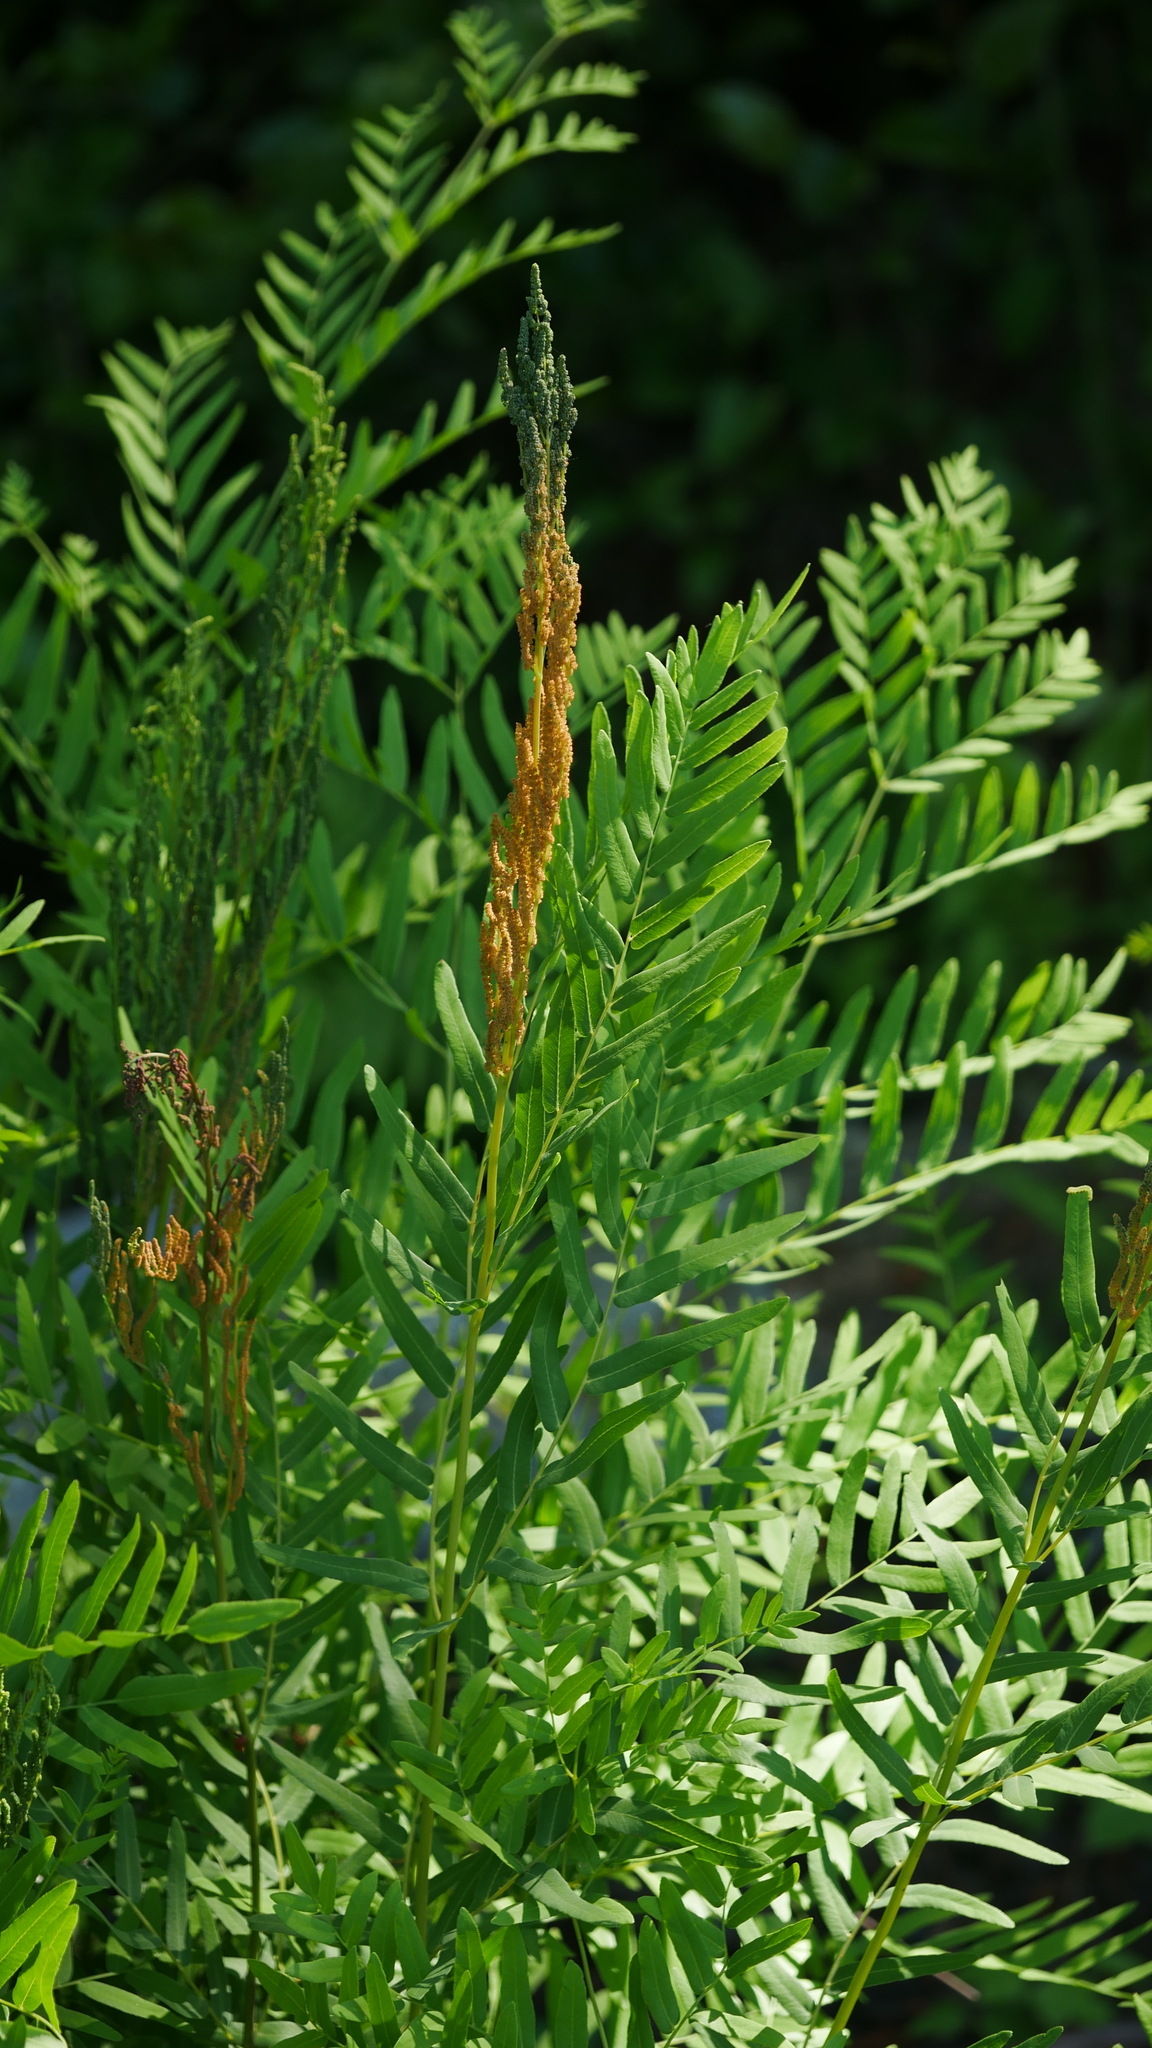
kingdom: Plantae
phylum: Tracheophyta
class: Polypodiopsida
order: Osmundales
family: Osmundaceae
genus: Osmunda
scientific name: Osmunda spectabilis
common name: American royal fern
